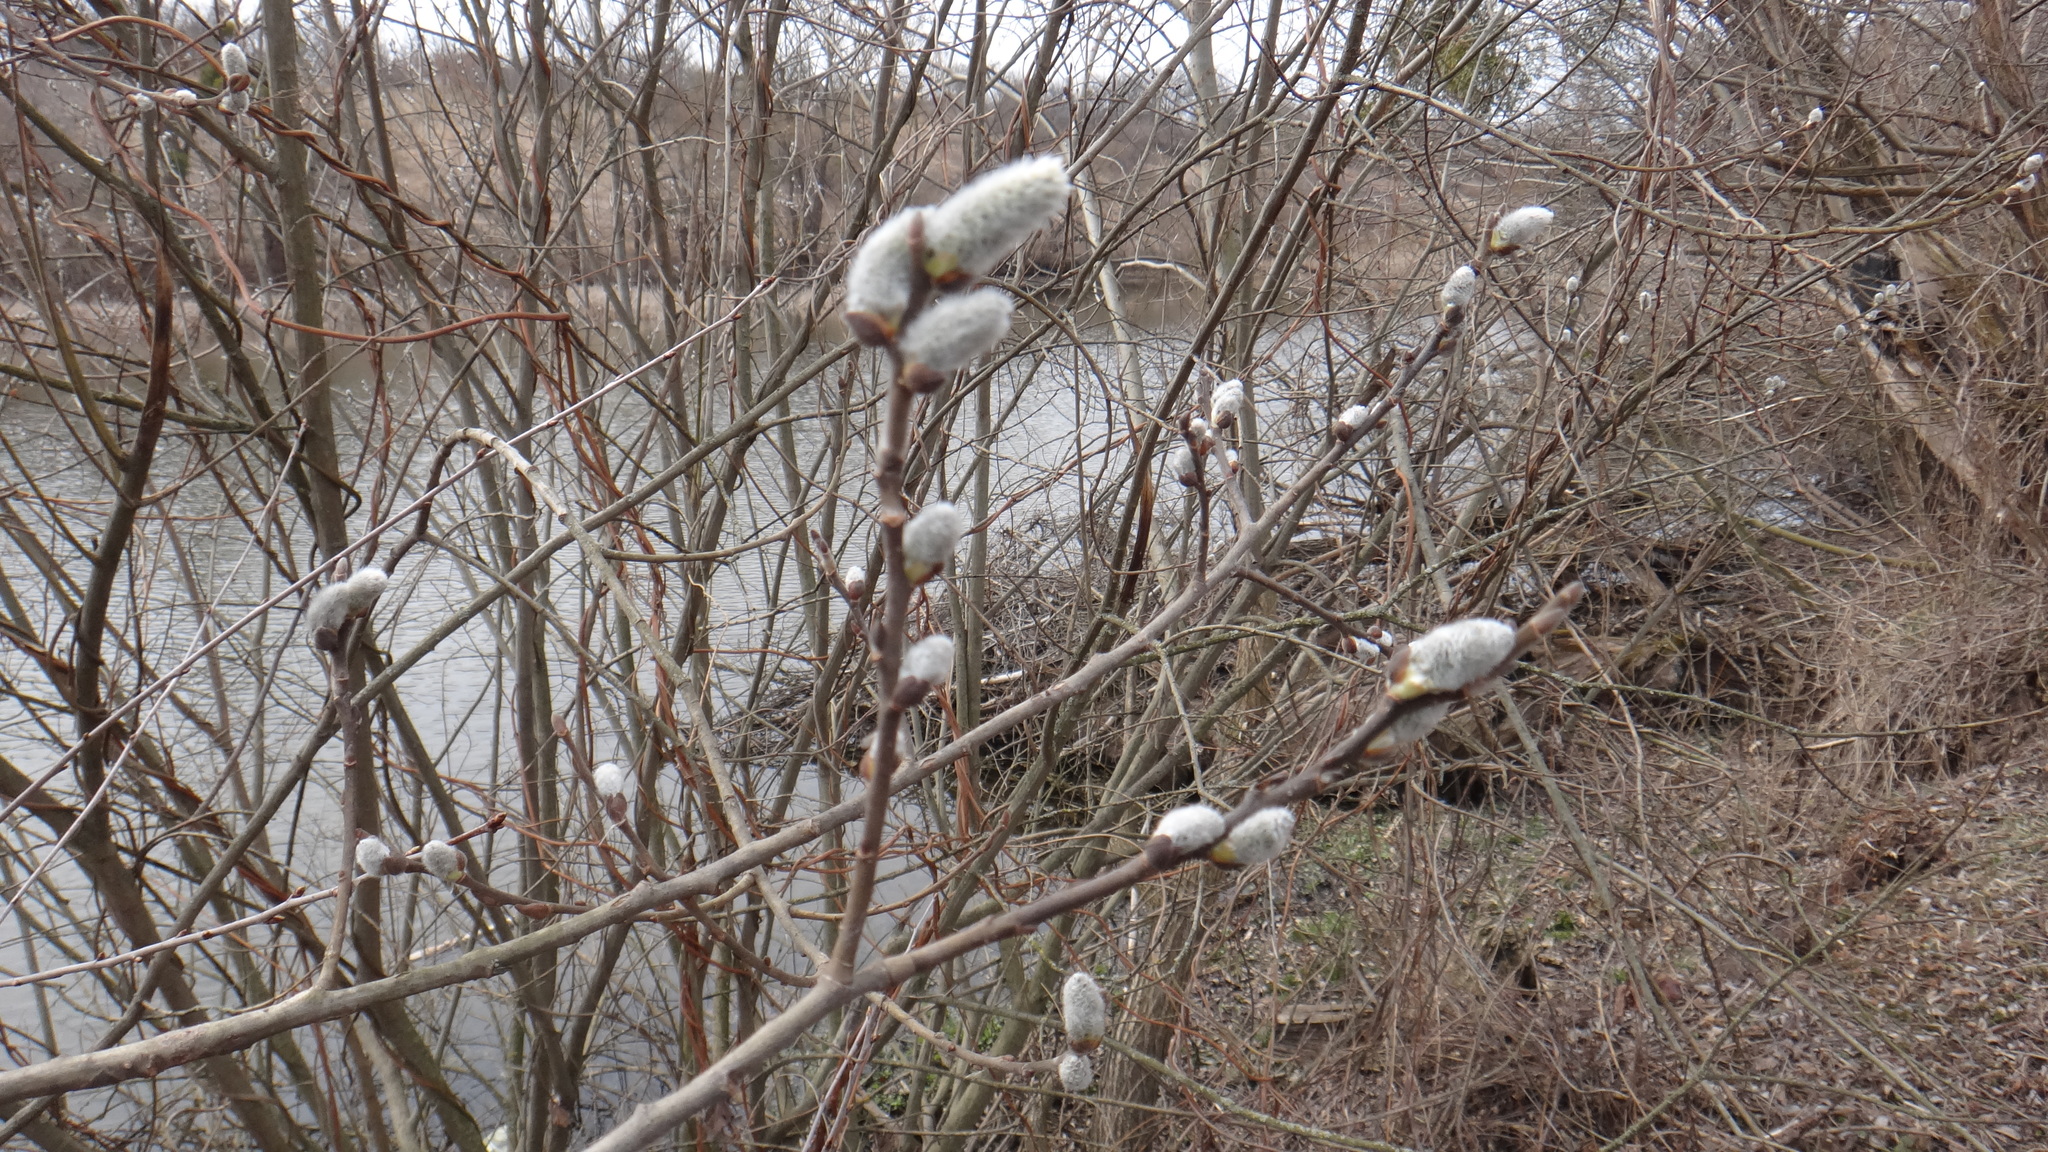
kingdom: Plantae
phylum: Tracheophyta
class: Magnoliopsida
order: Malpighiales
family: Salicaceae
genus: Salix
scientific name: Salix cinerea
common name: Common sallow
